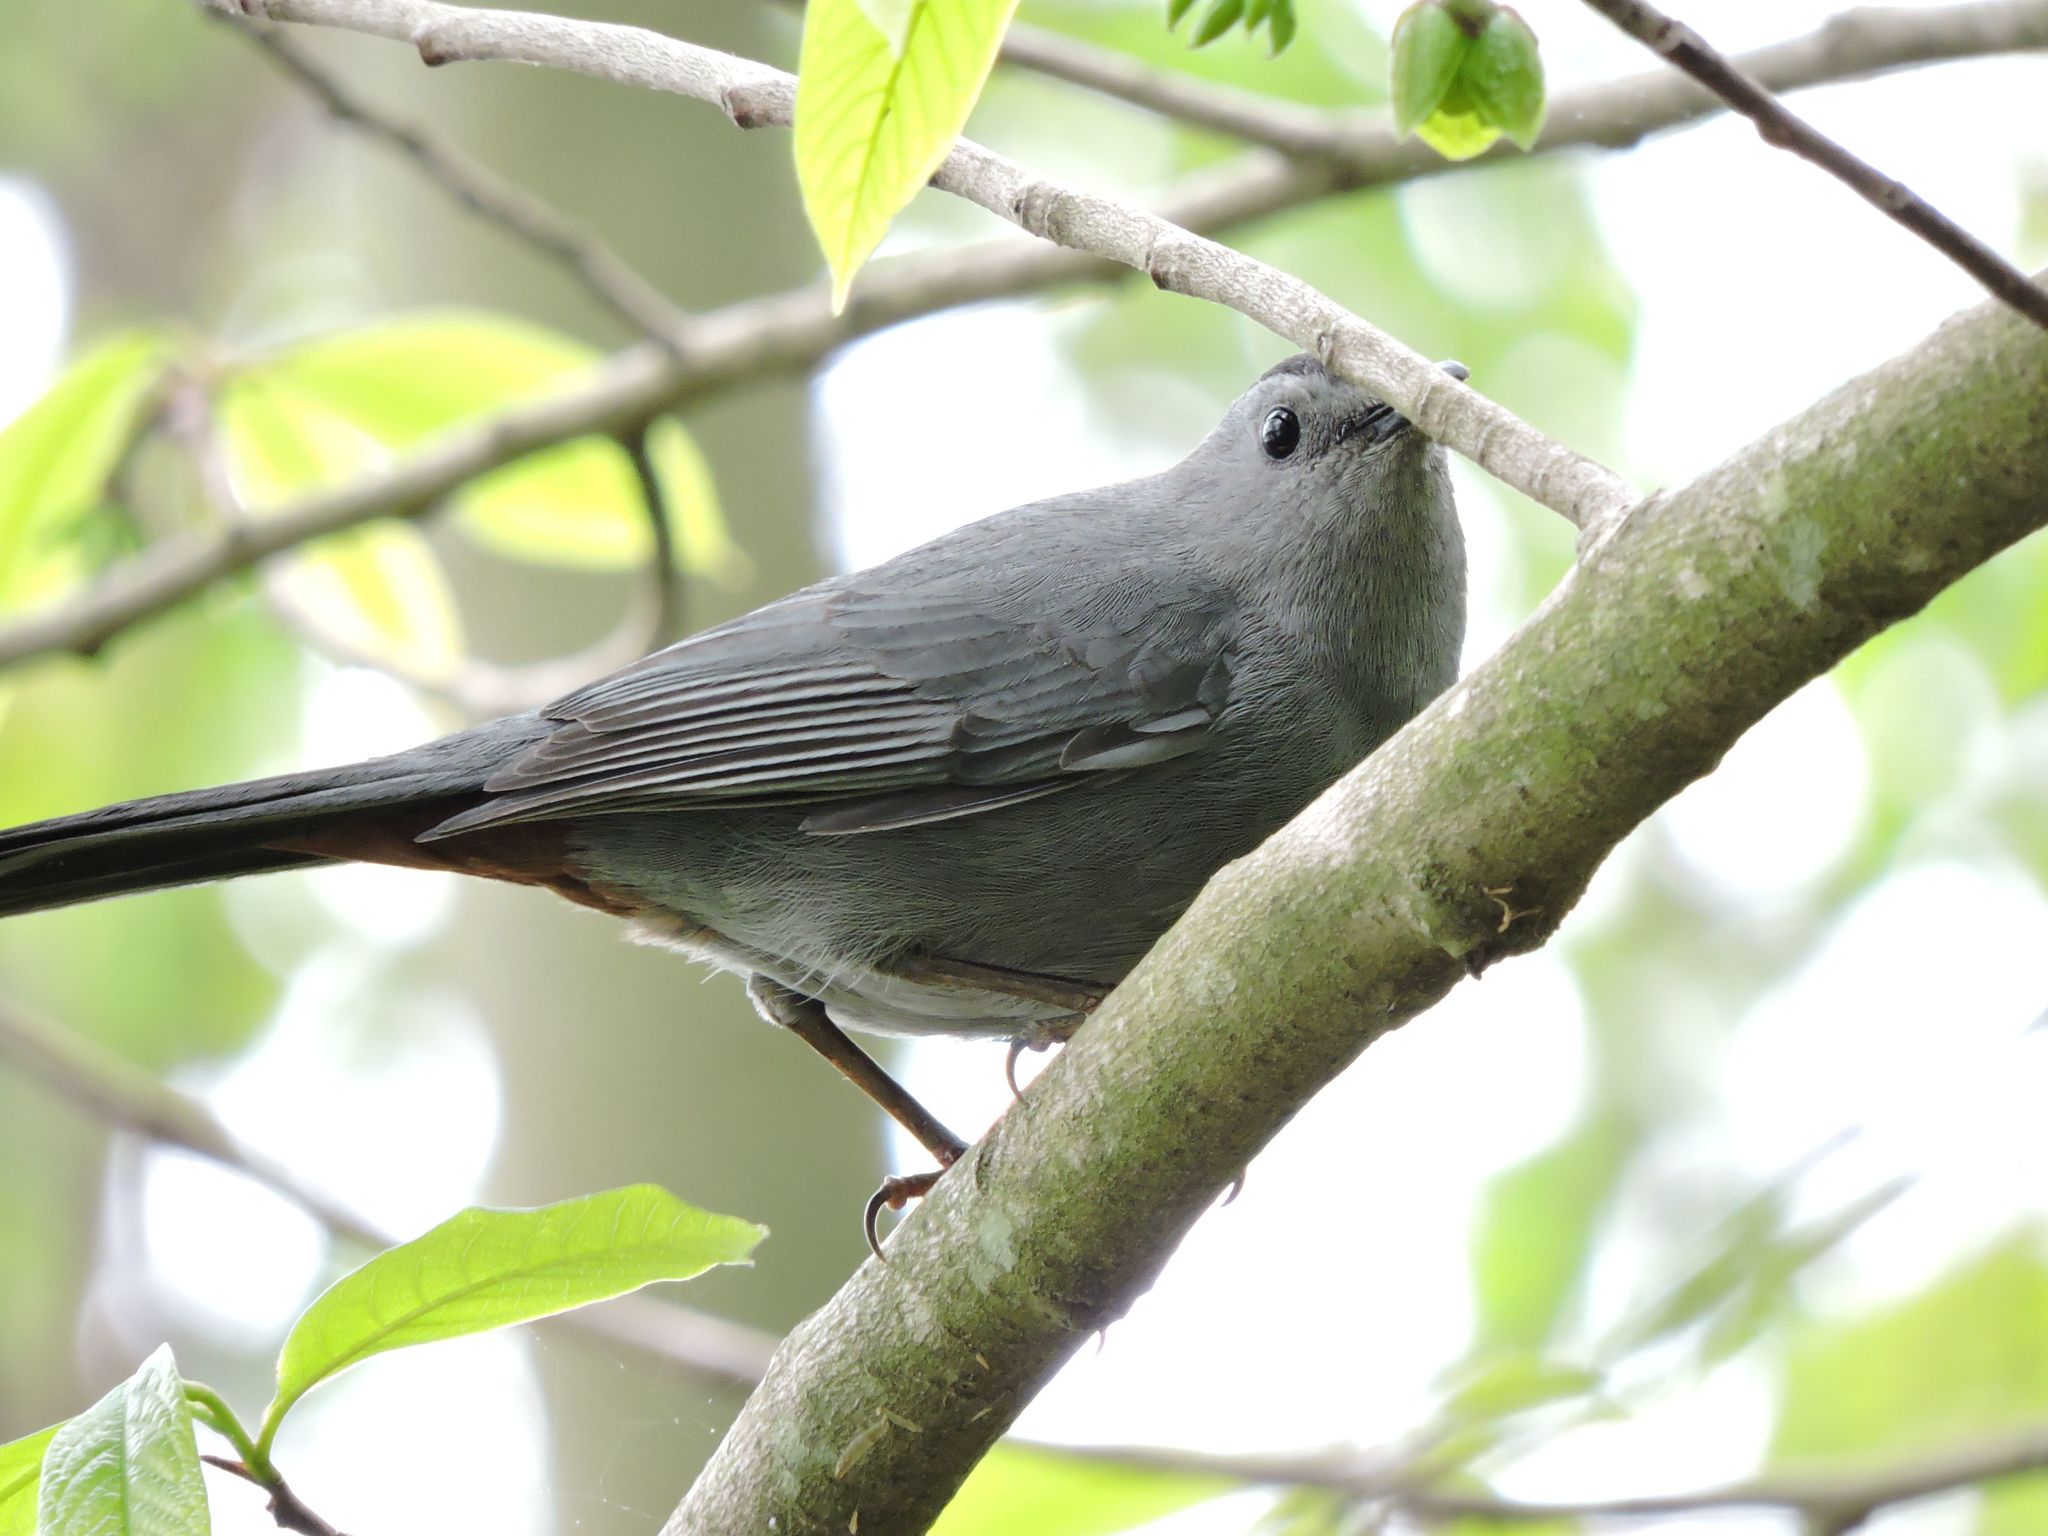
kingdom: Animalia
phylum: Chordata
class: Aves
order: Passeriformes
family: Mimidae
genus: Dumetella
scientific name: Dumetella carolinensis
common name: Gray catbird
